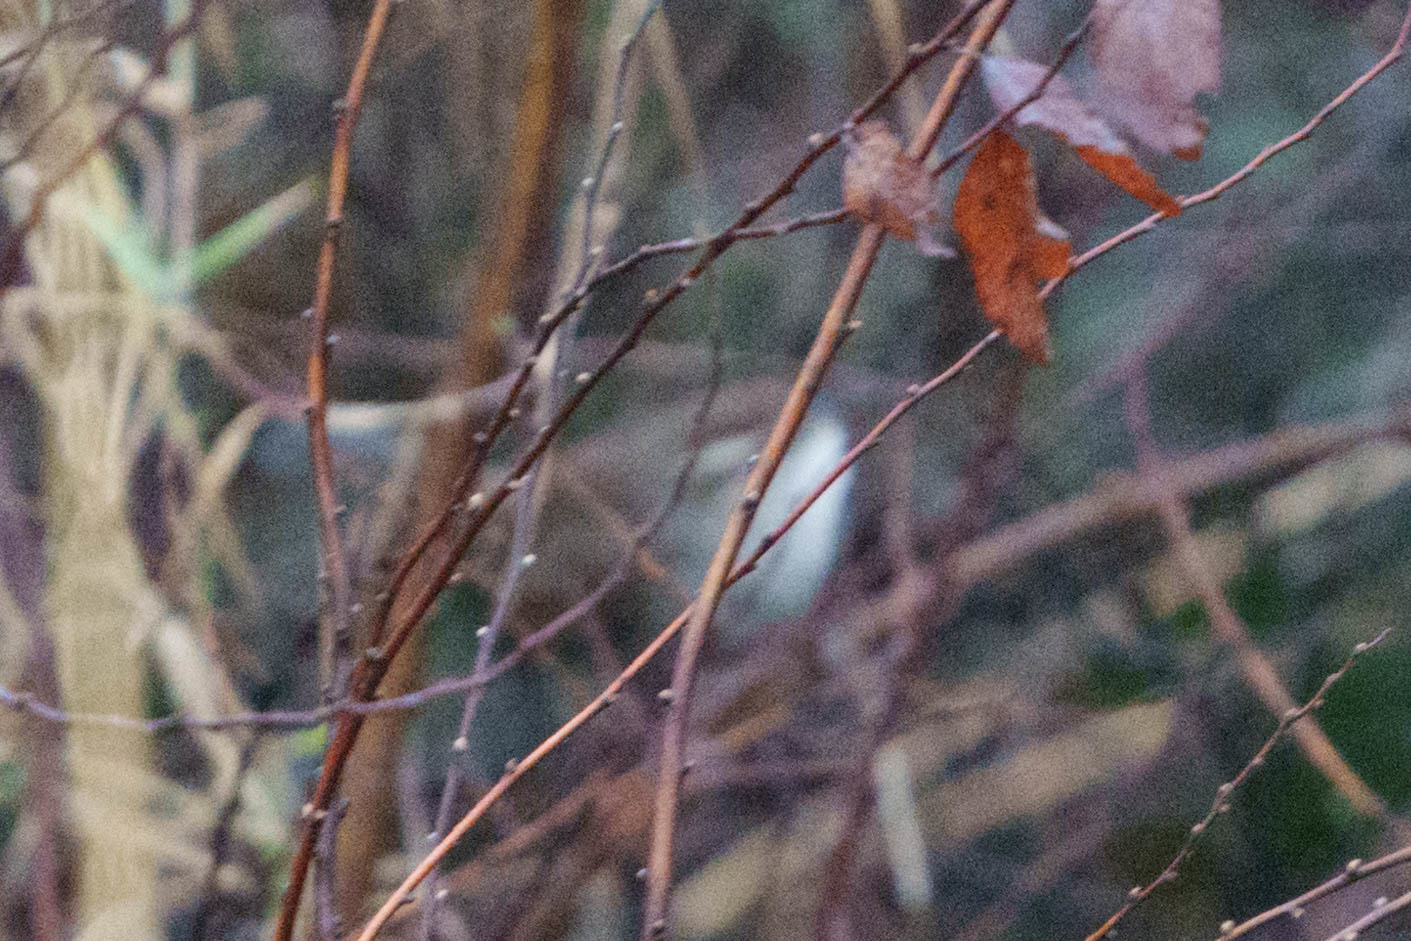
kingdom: Animalia
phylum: Chordata
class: Aves
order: Passeriformes
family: Troglodytidae
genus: Thryomanes
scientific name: Thryomanes bewickii
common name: Bewick's wren
